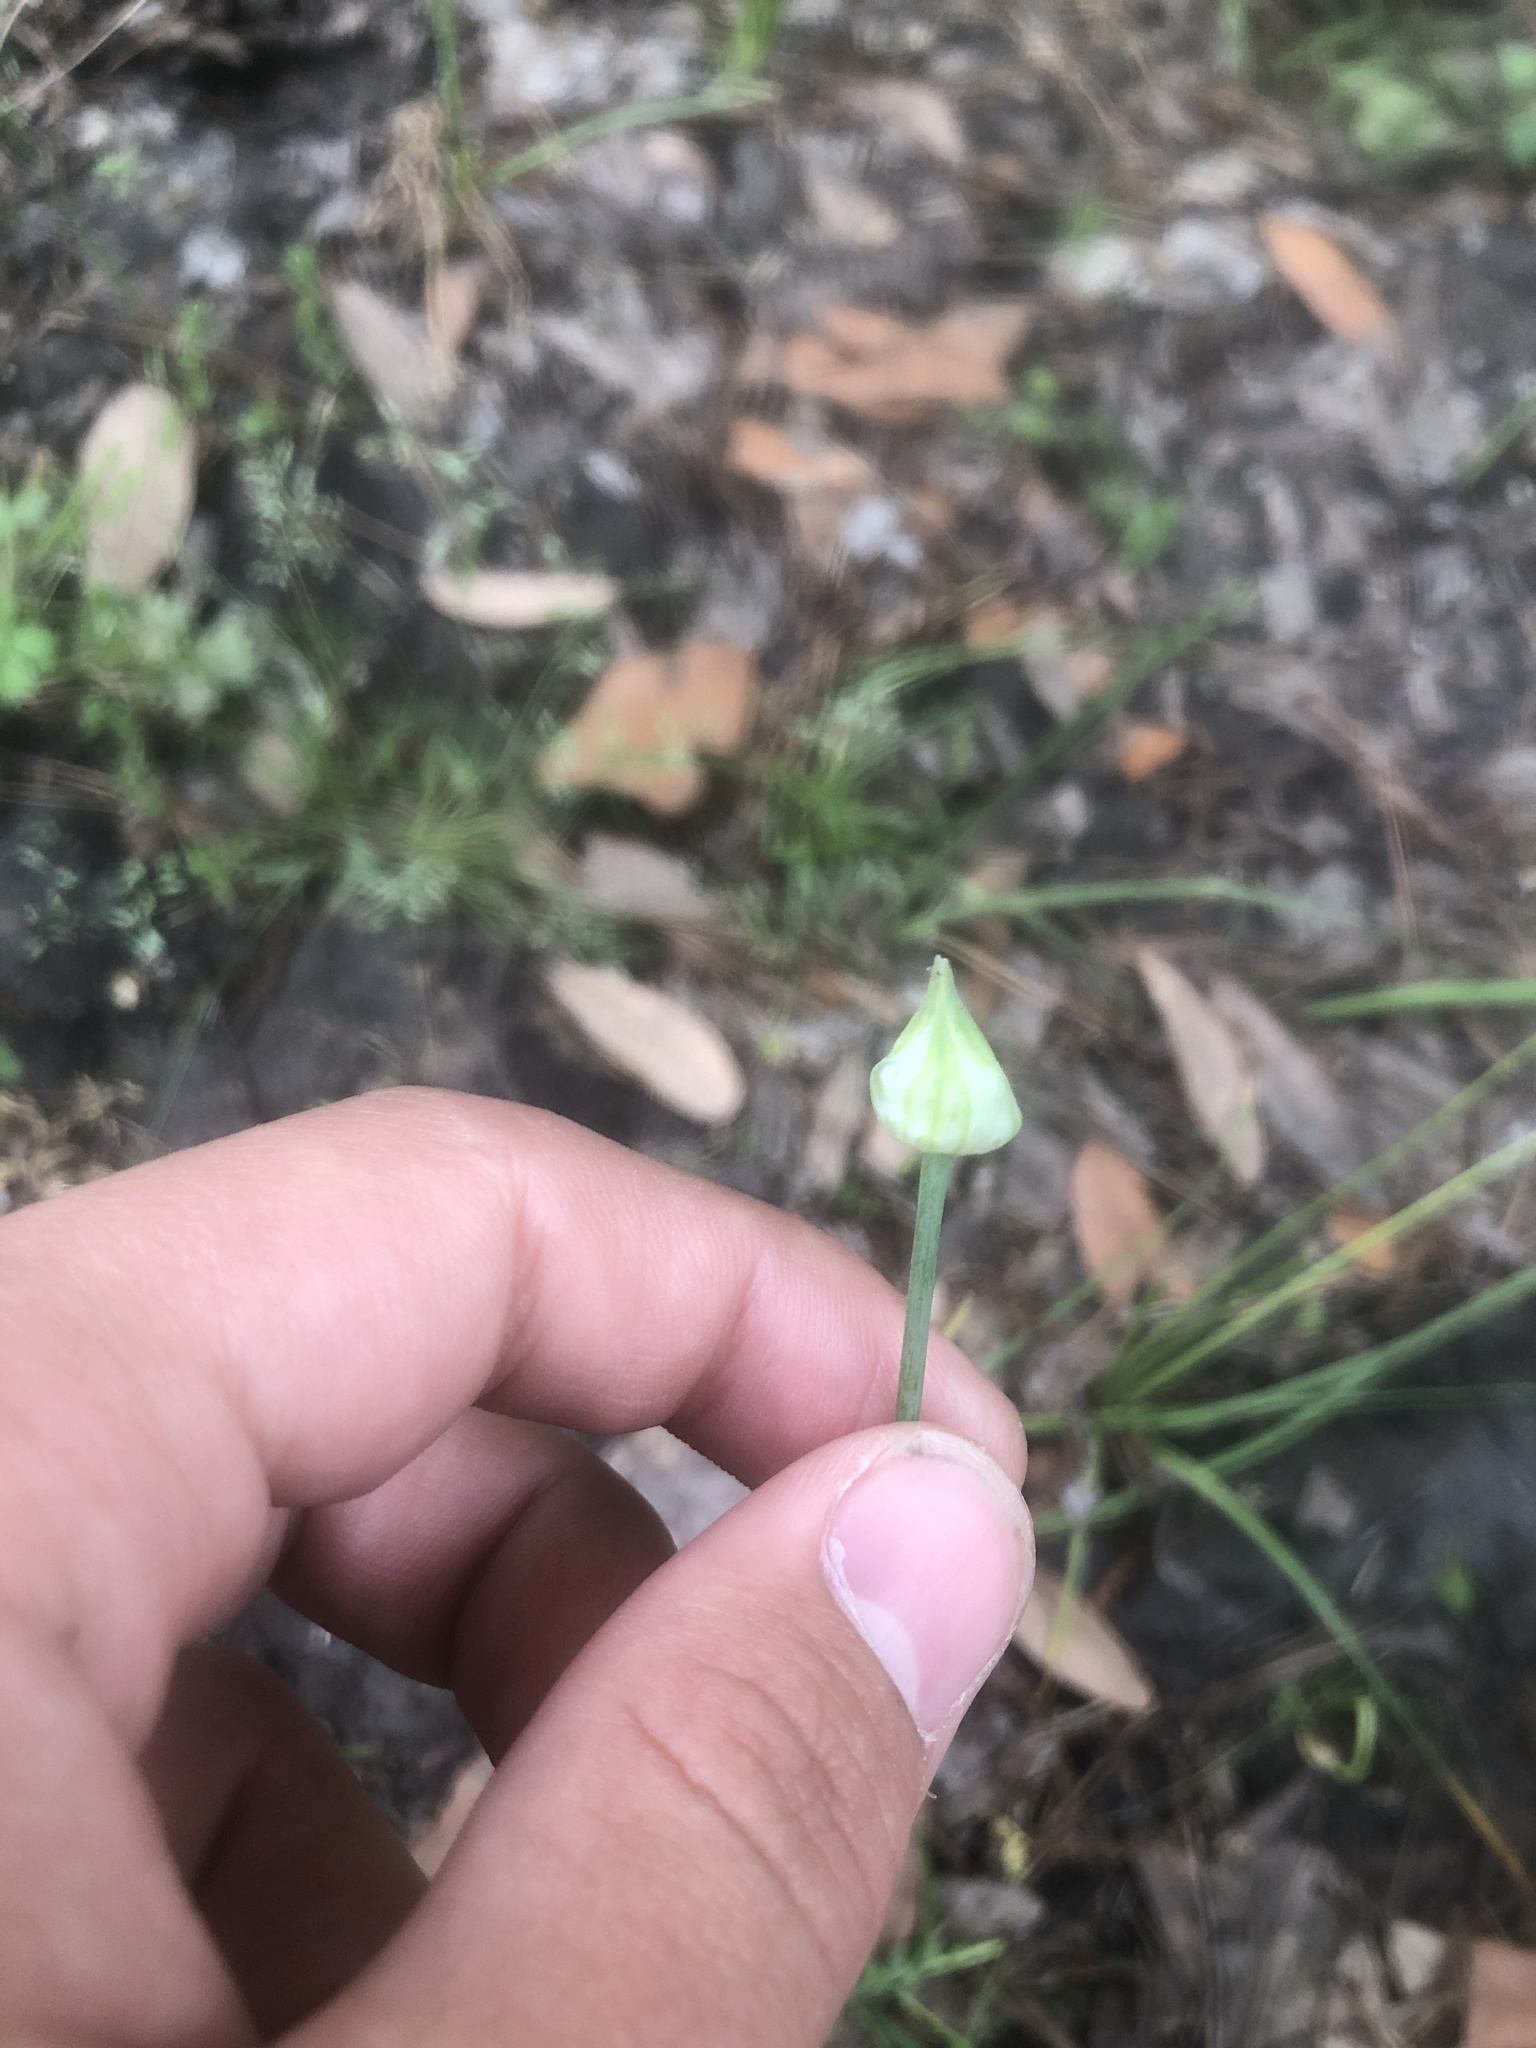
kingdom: Plantae
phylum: Tracheophyta
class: Liliopsida
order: Asparagales
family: Amaryllidaceae
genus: Allium
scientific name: Allium vineale
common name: Crow garlic
